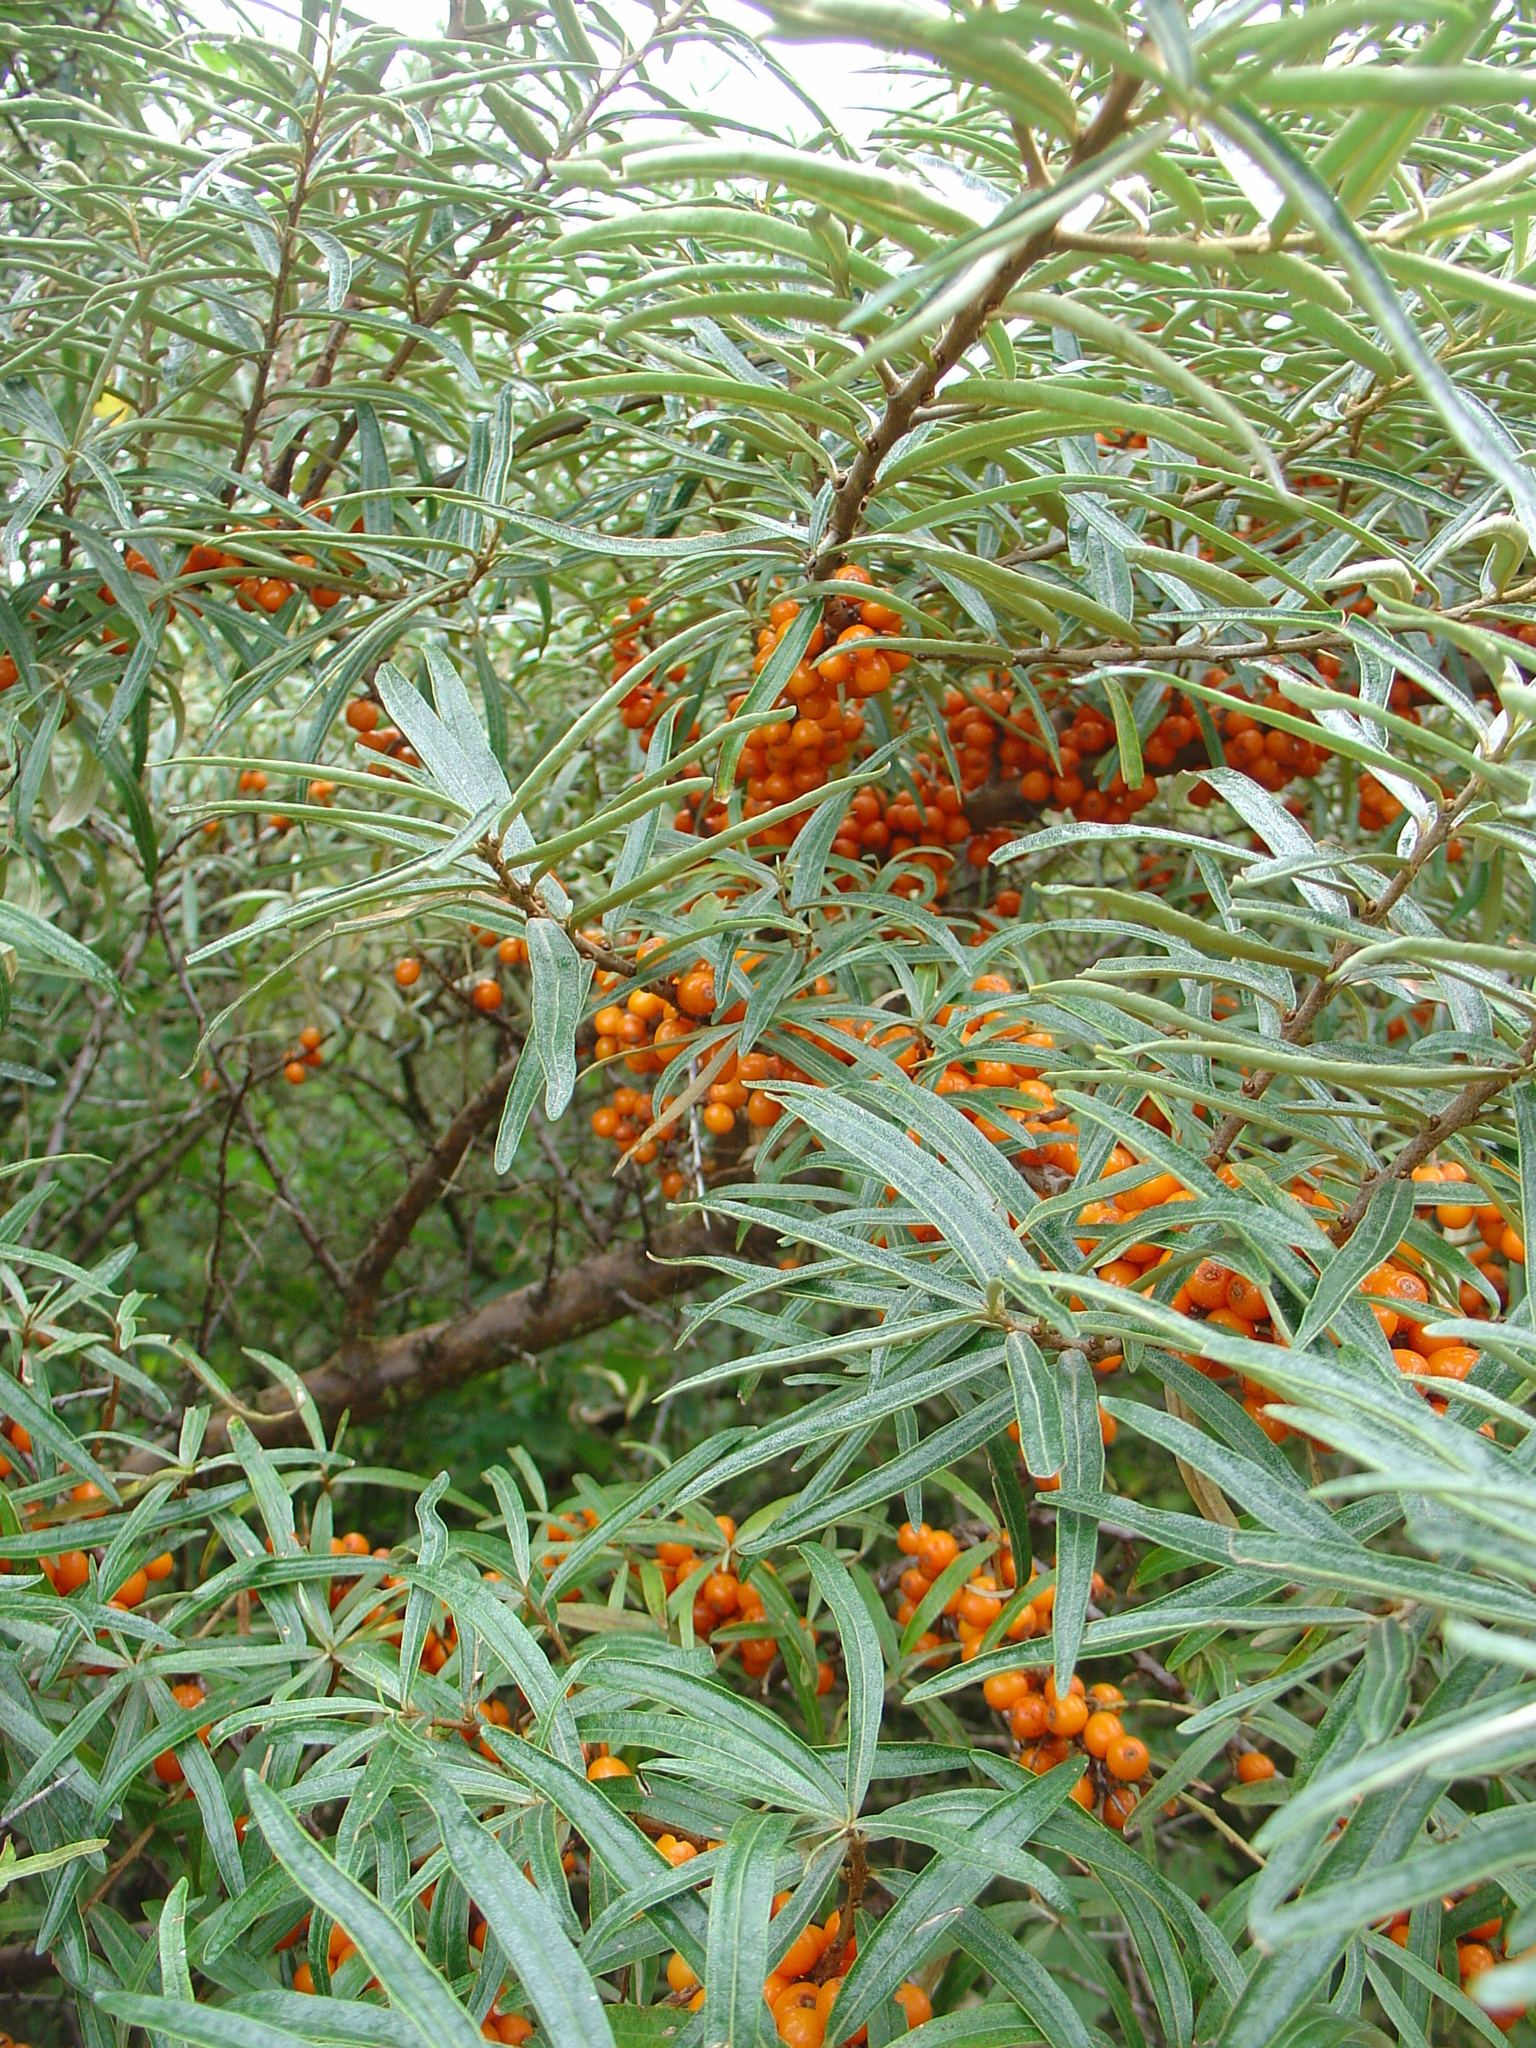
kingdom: Plantae
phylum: Tracheophyta
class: Magnoliopsida
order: Rosales
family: Elaeagnaceae
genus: Hippophae
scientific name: Hippophae rhamnoides
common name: Sea-buckthorn
